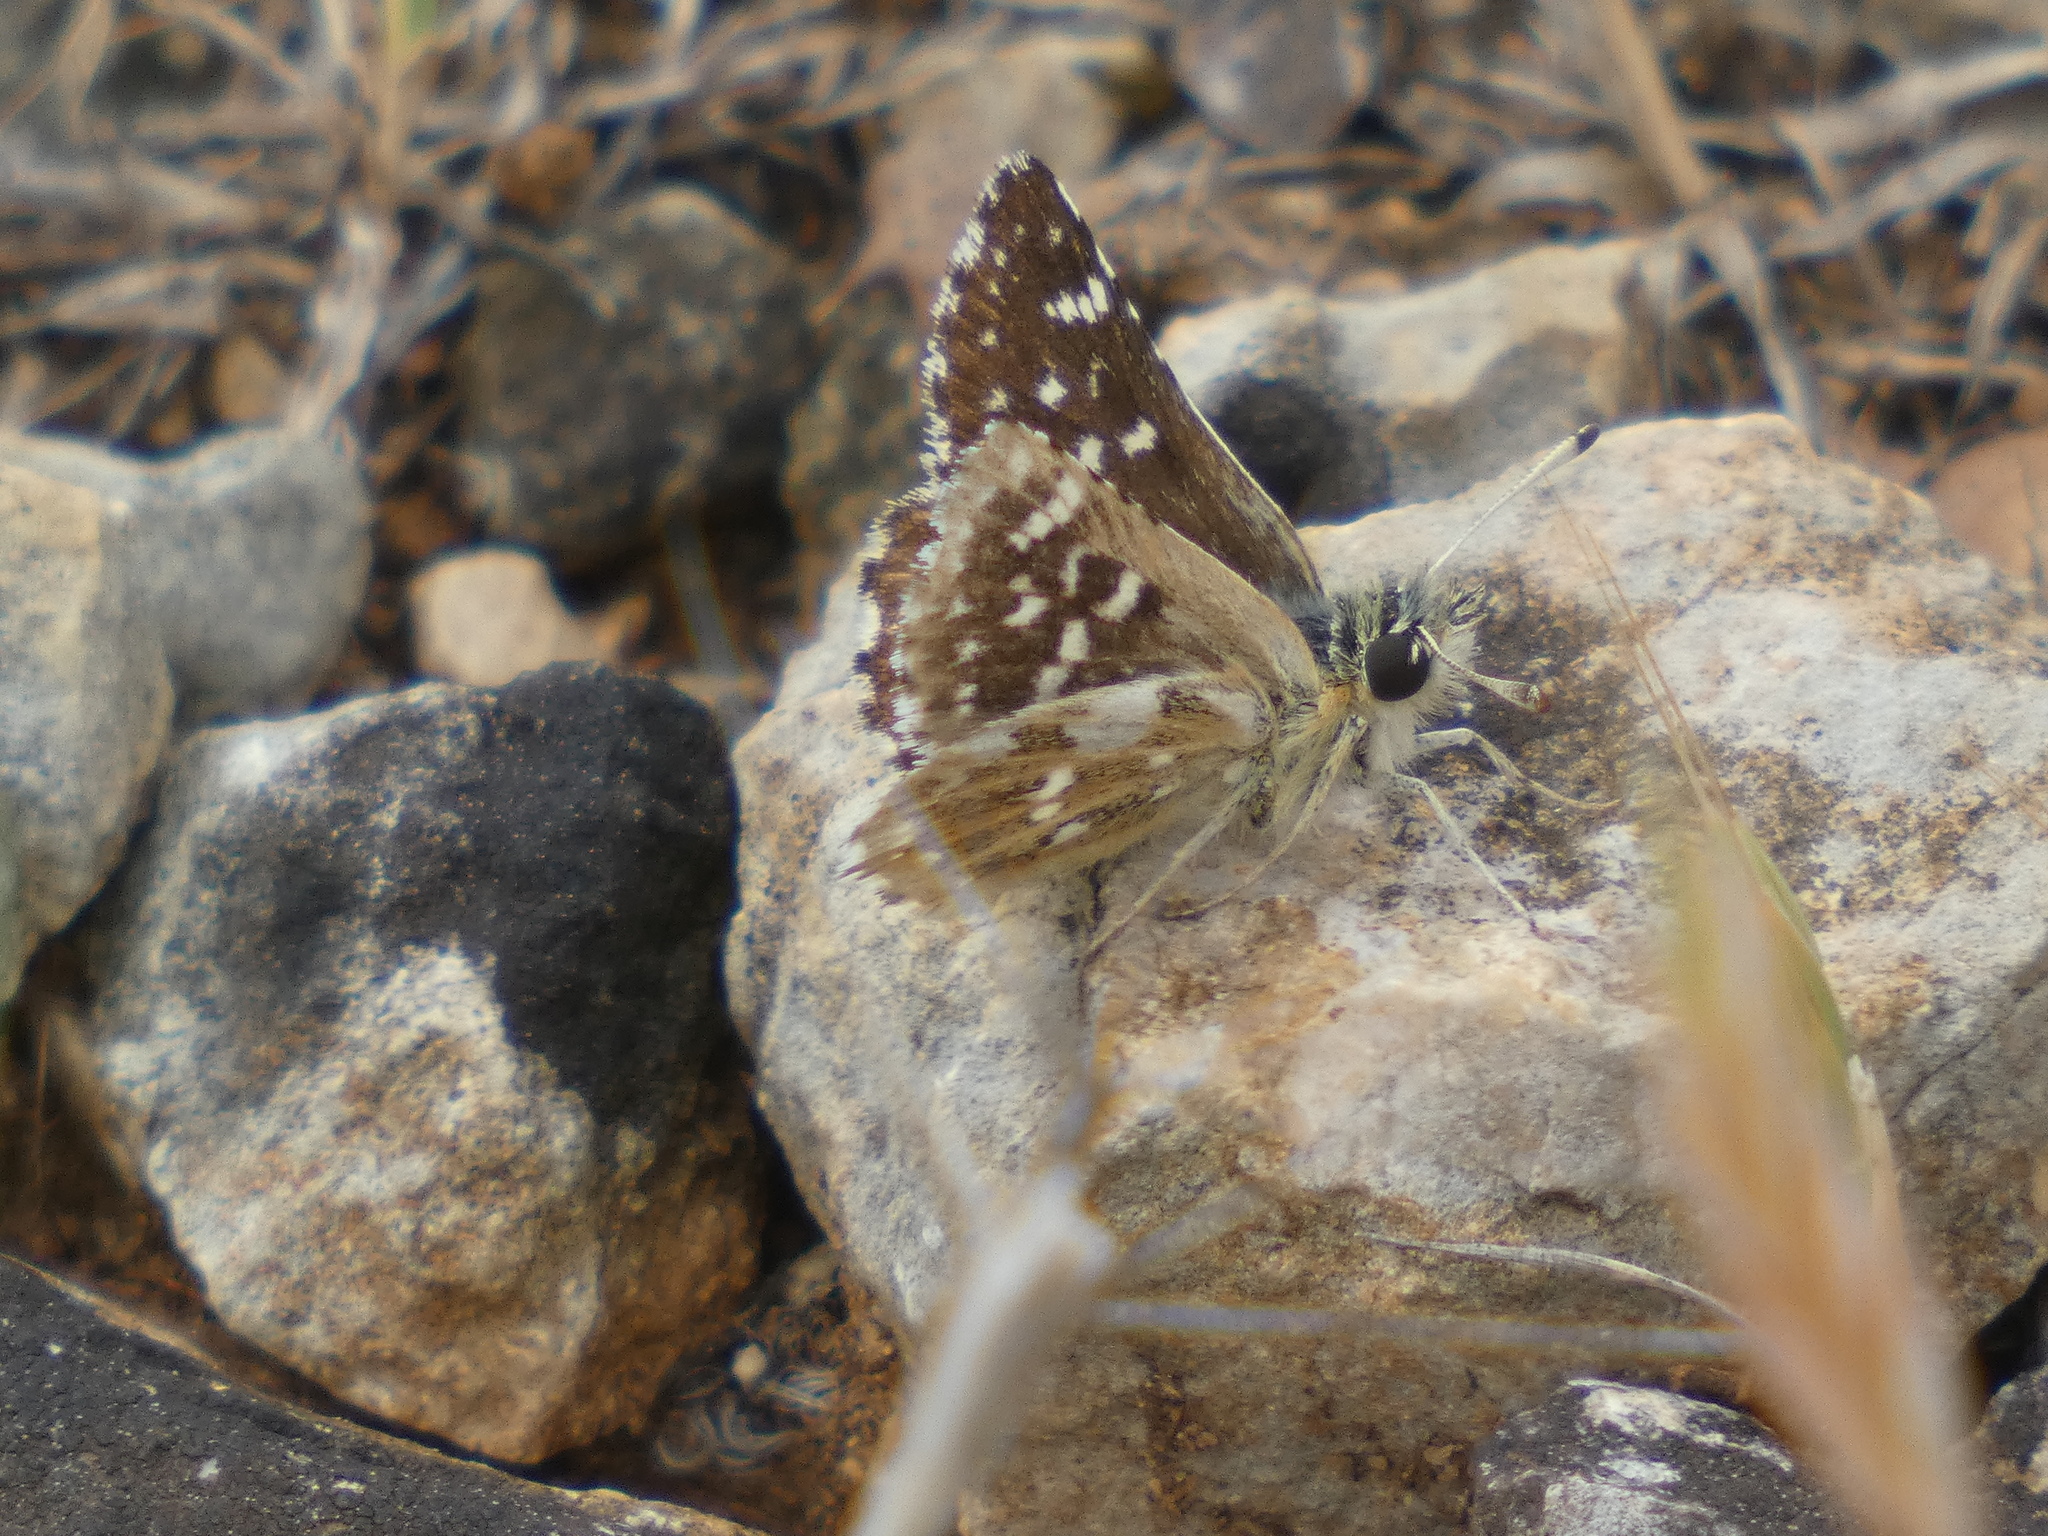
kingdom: Animalia
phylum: Arthropoda
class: Insecta
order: Lepidoptera
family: Hesperiidae
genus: Spialia
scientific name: Spialia sertorius
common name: Red underwing skipper
